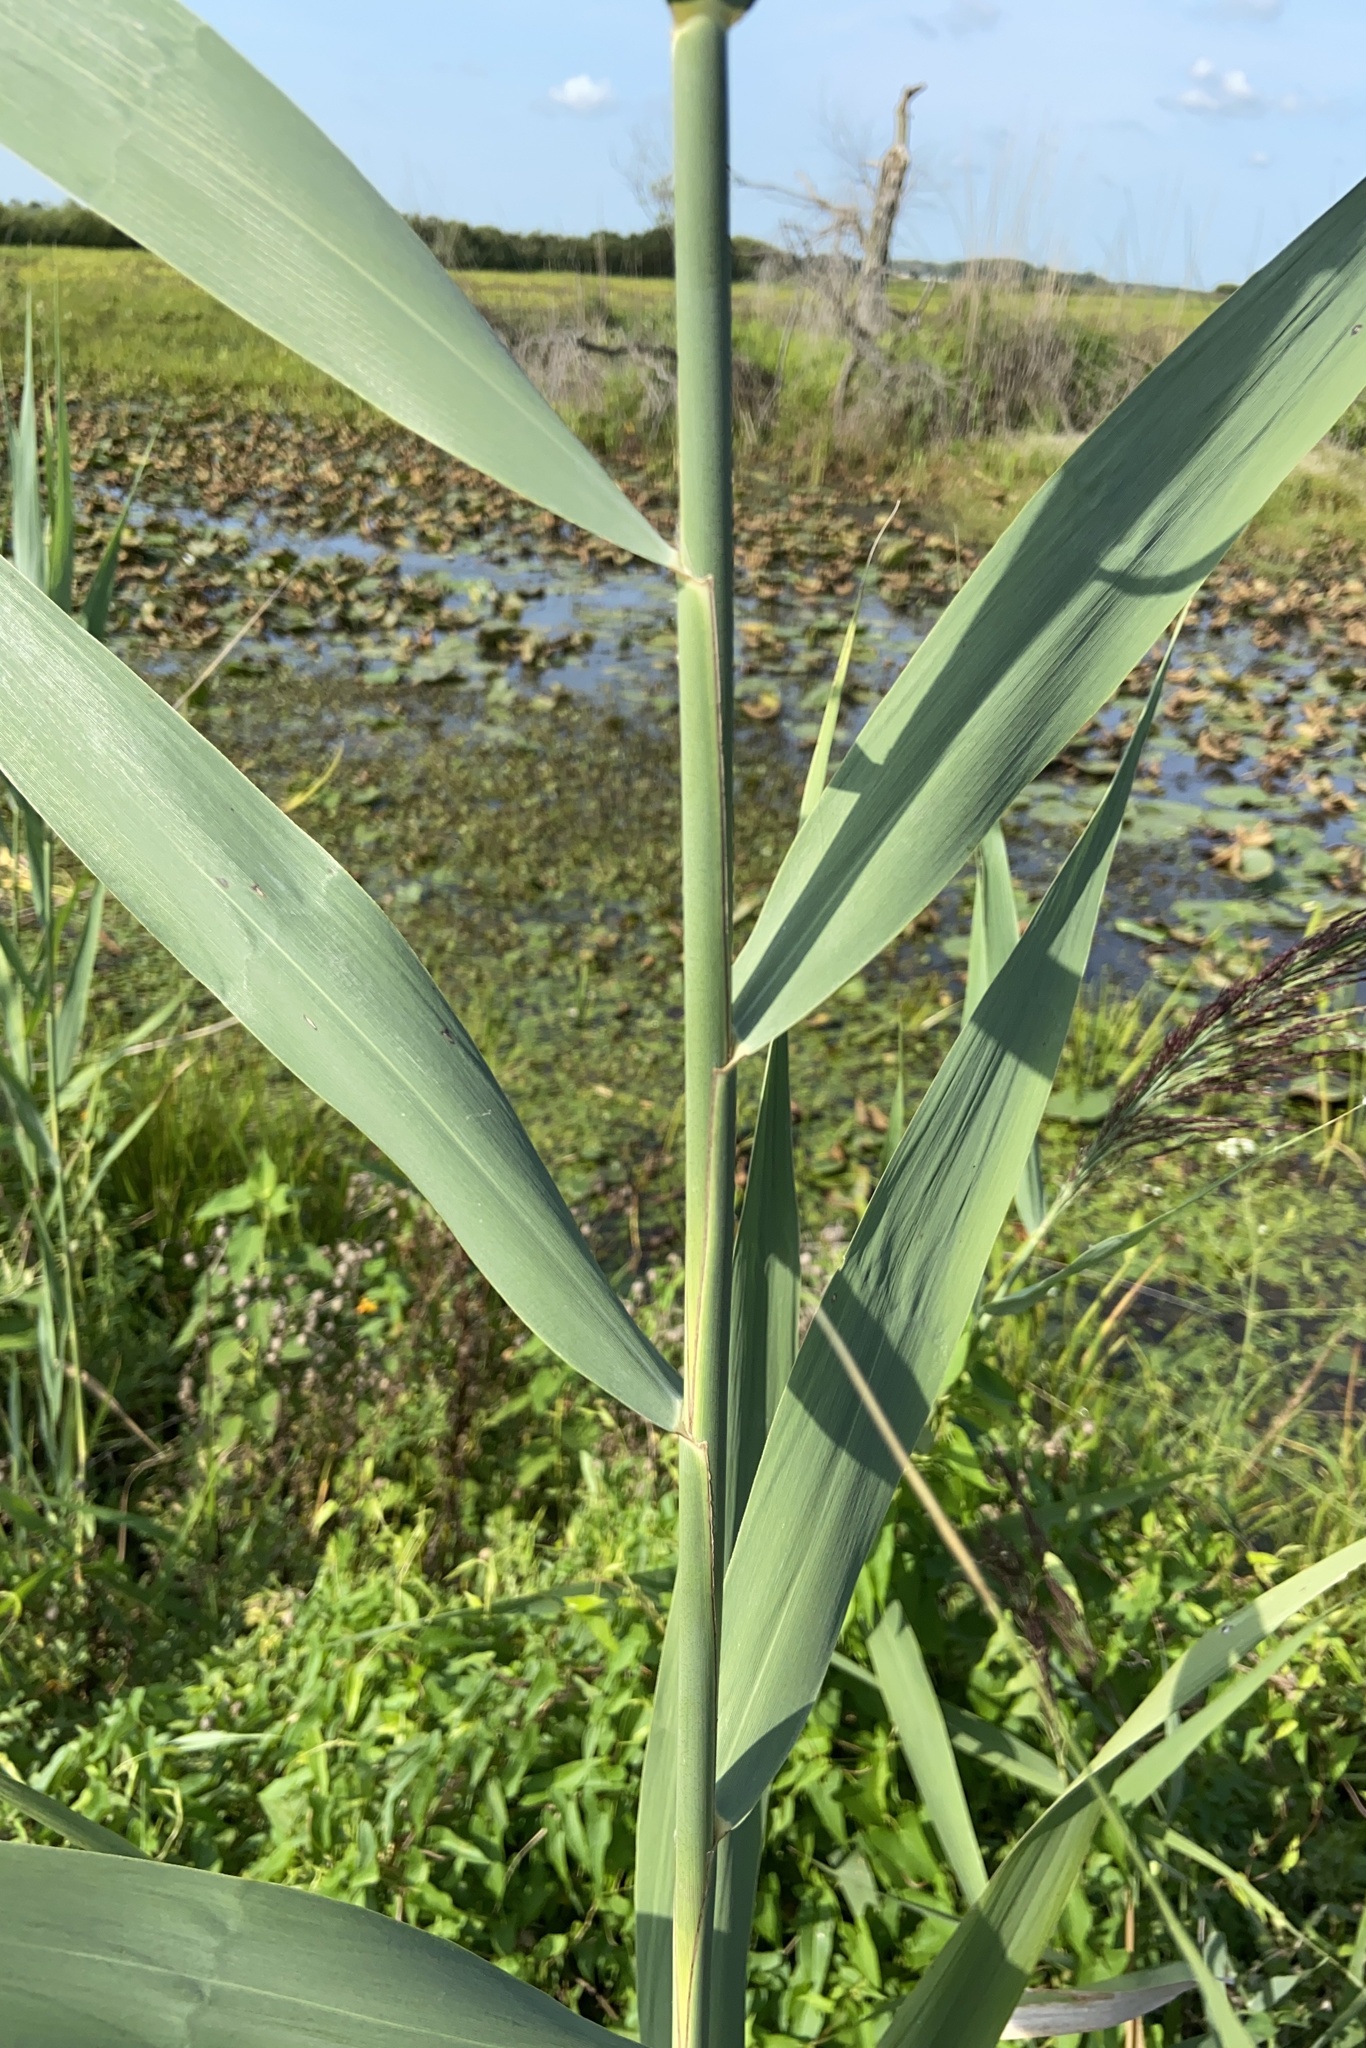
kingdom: Plantae
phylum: Tracheophyta
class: Liliopsida
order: Poales
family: Poaceae
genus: Phragmites
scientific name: Phragmites australis
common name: Common reed
